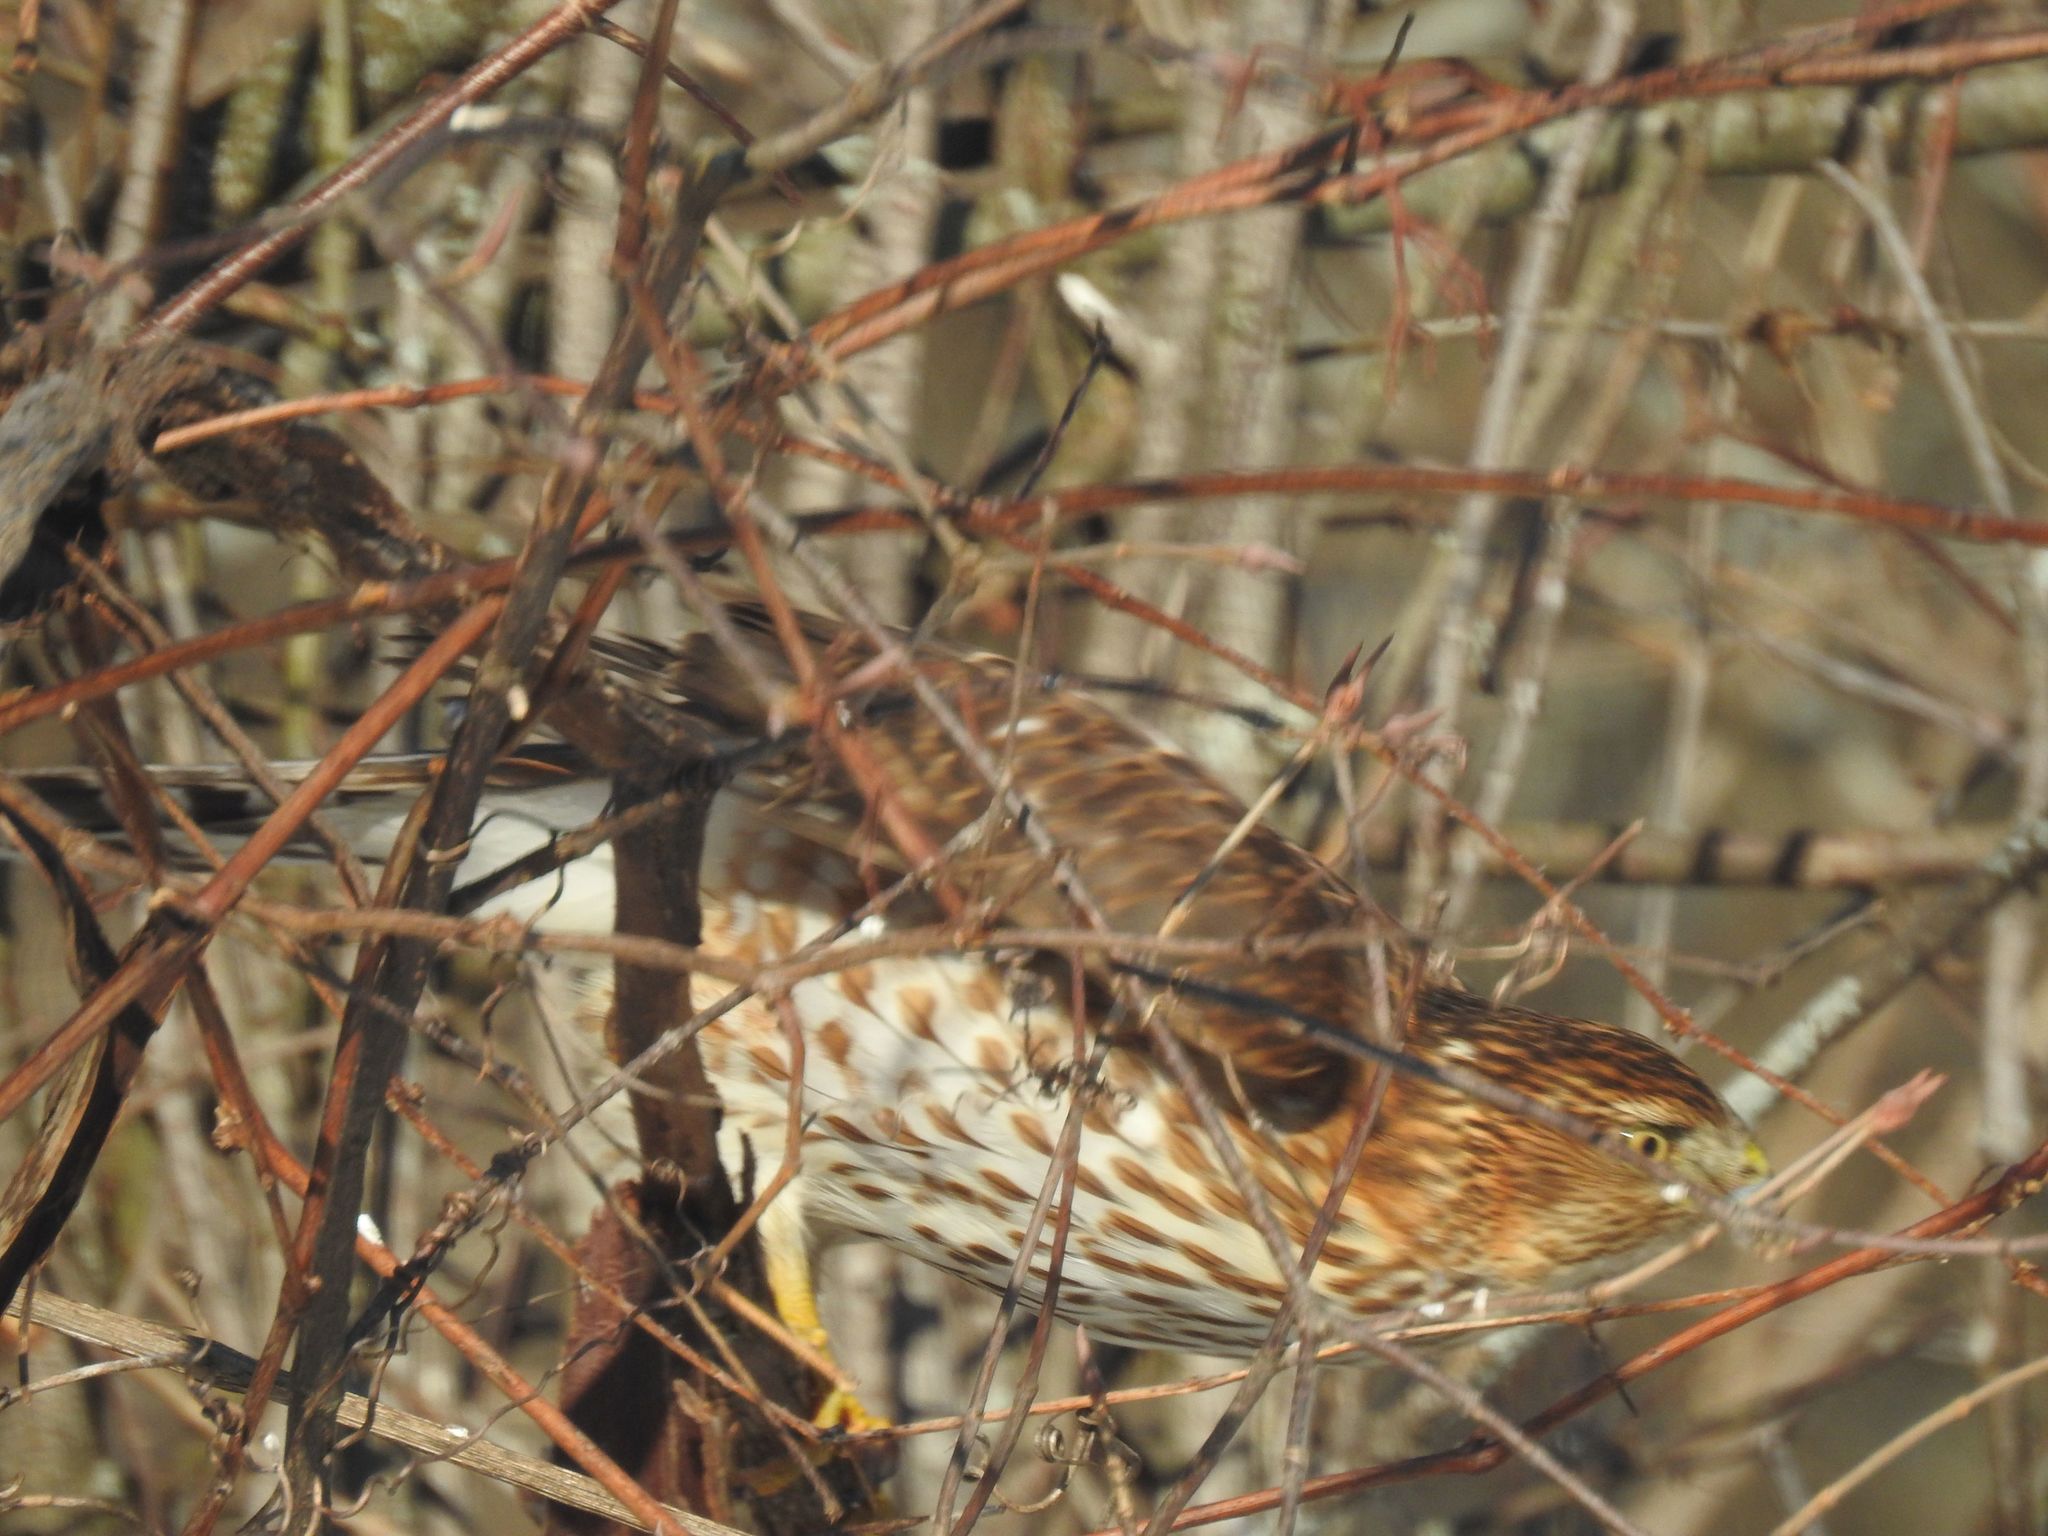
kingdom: Animalia
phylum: Chordata
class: Aves
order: Accipitriformes
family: Accipitridae
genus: Accipiter
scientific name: Accipiter cooperii
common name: Cooper's hawk
